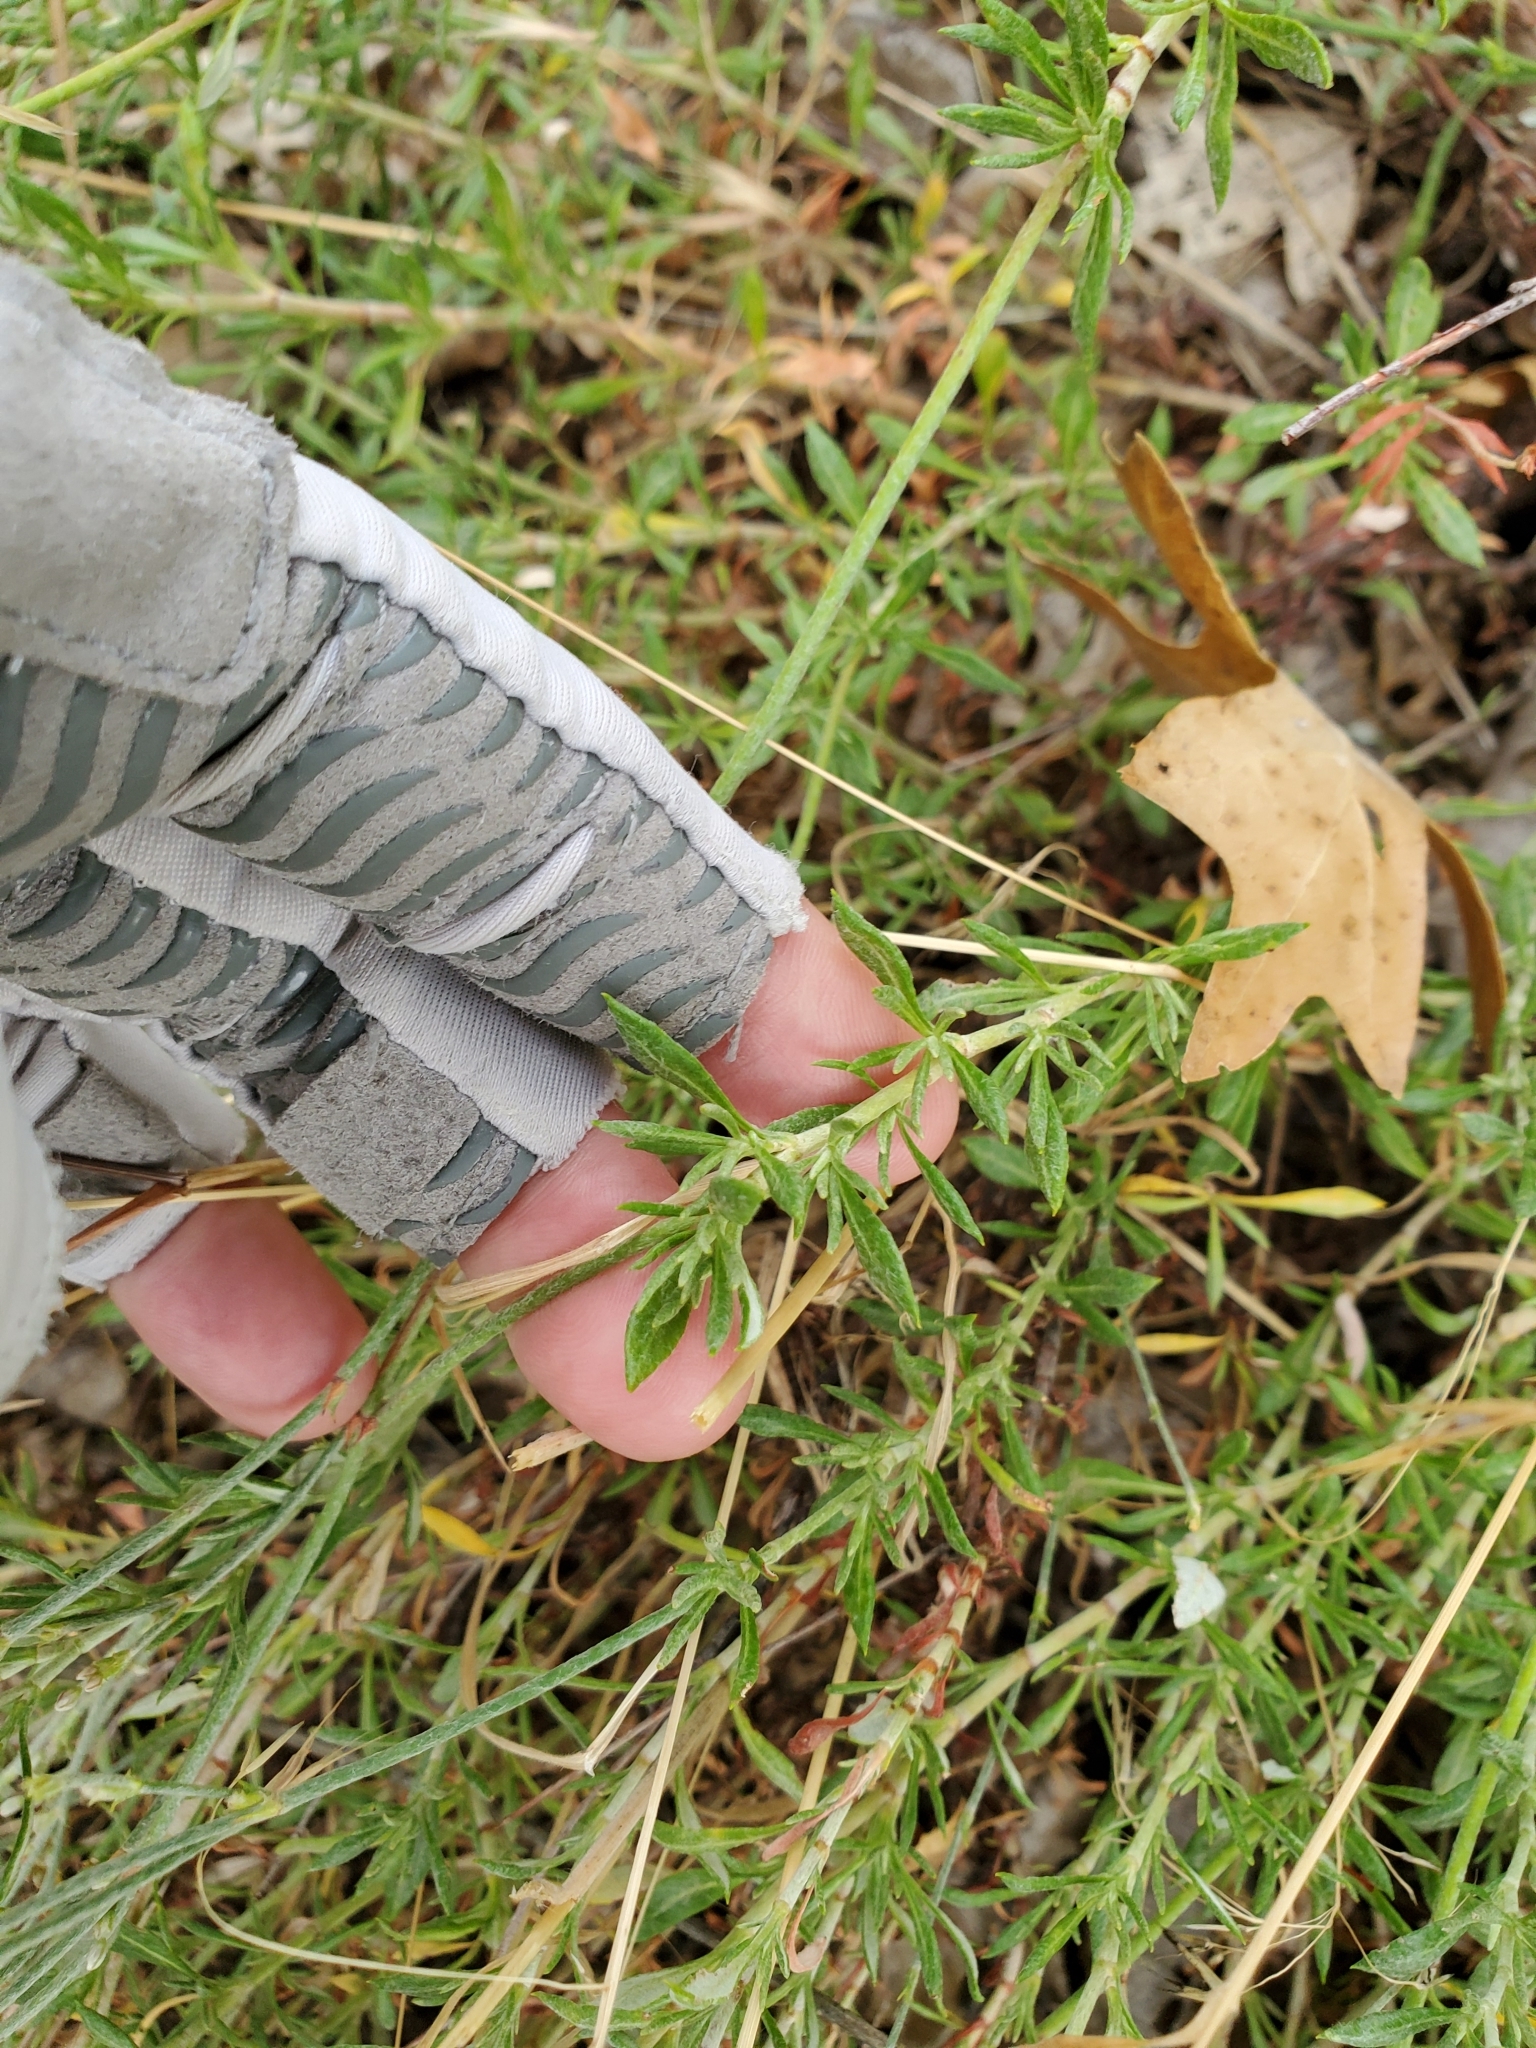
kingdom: Plantae
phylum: Tracheophyta
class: Magnoliopsida
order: Caryophyllales
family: Polygonaceae
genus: Eriogonum
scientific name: Eriogonum wrightii
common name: Bastard-sage
